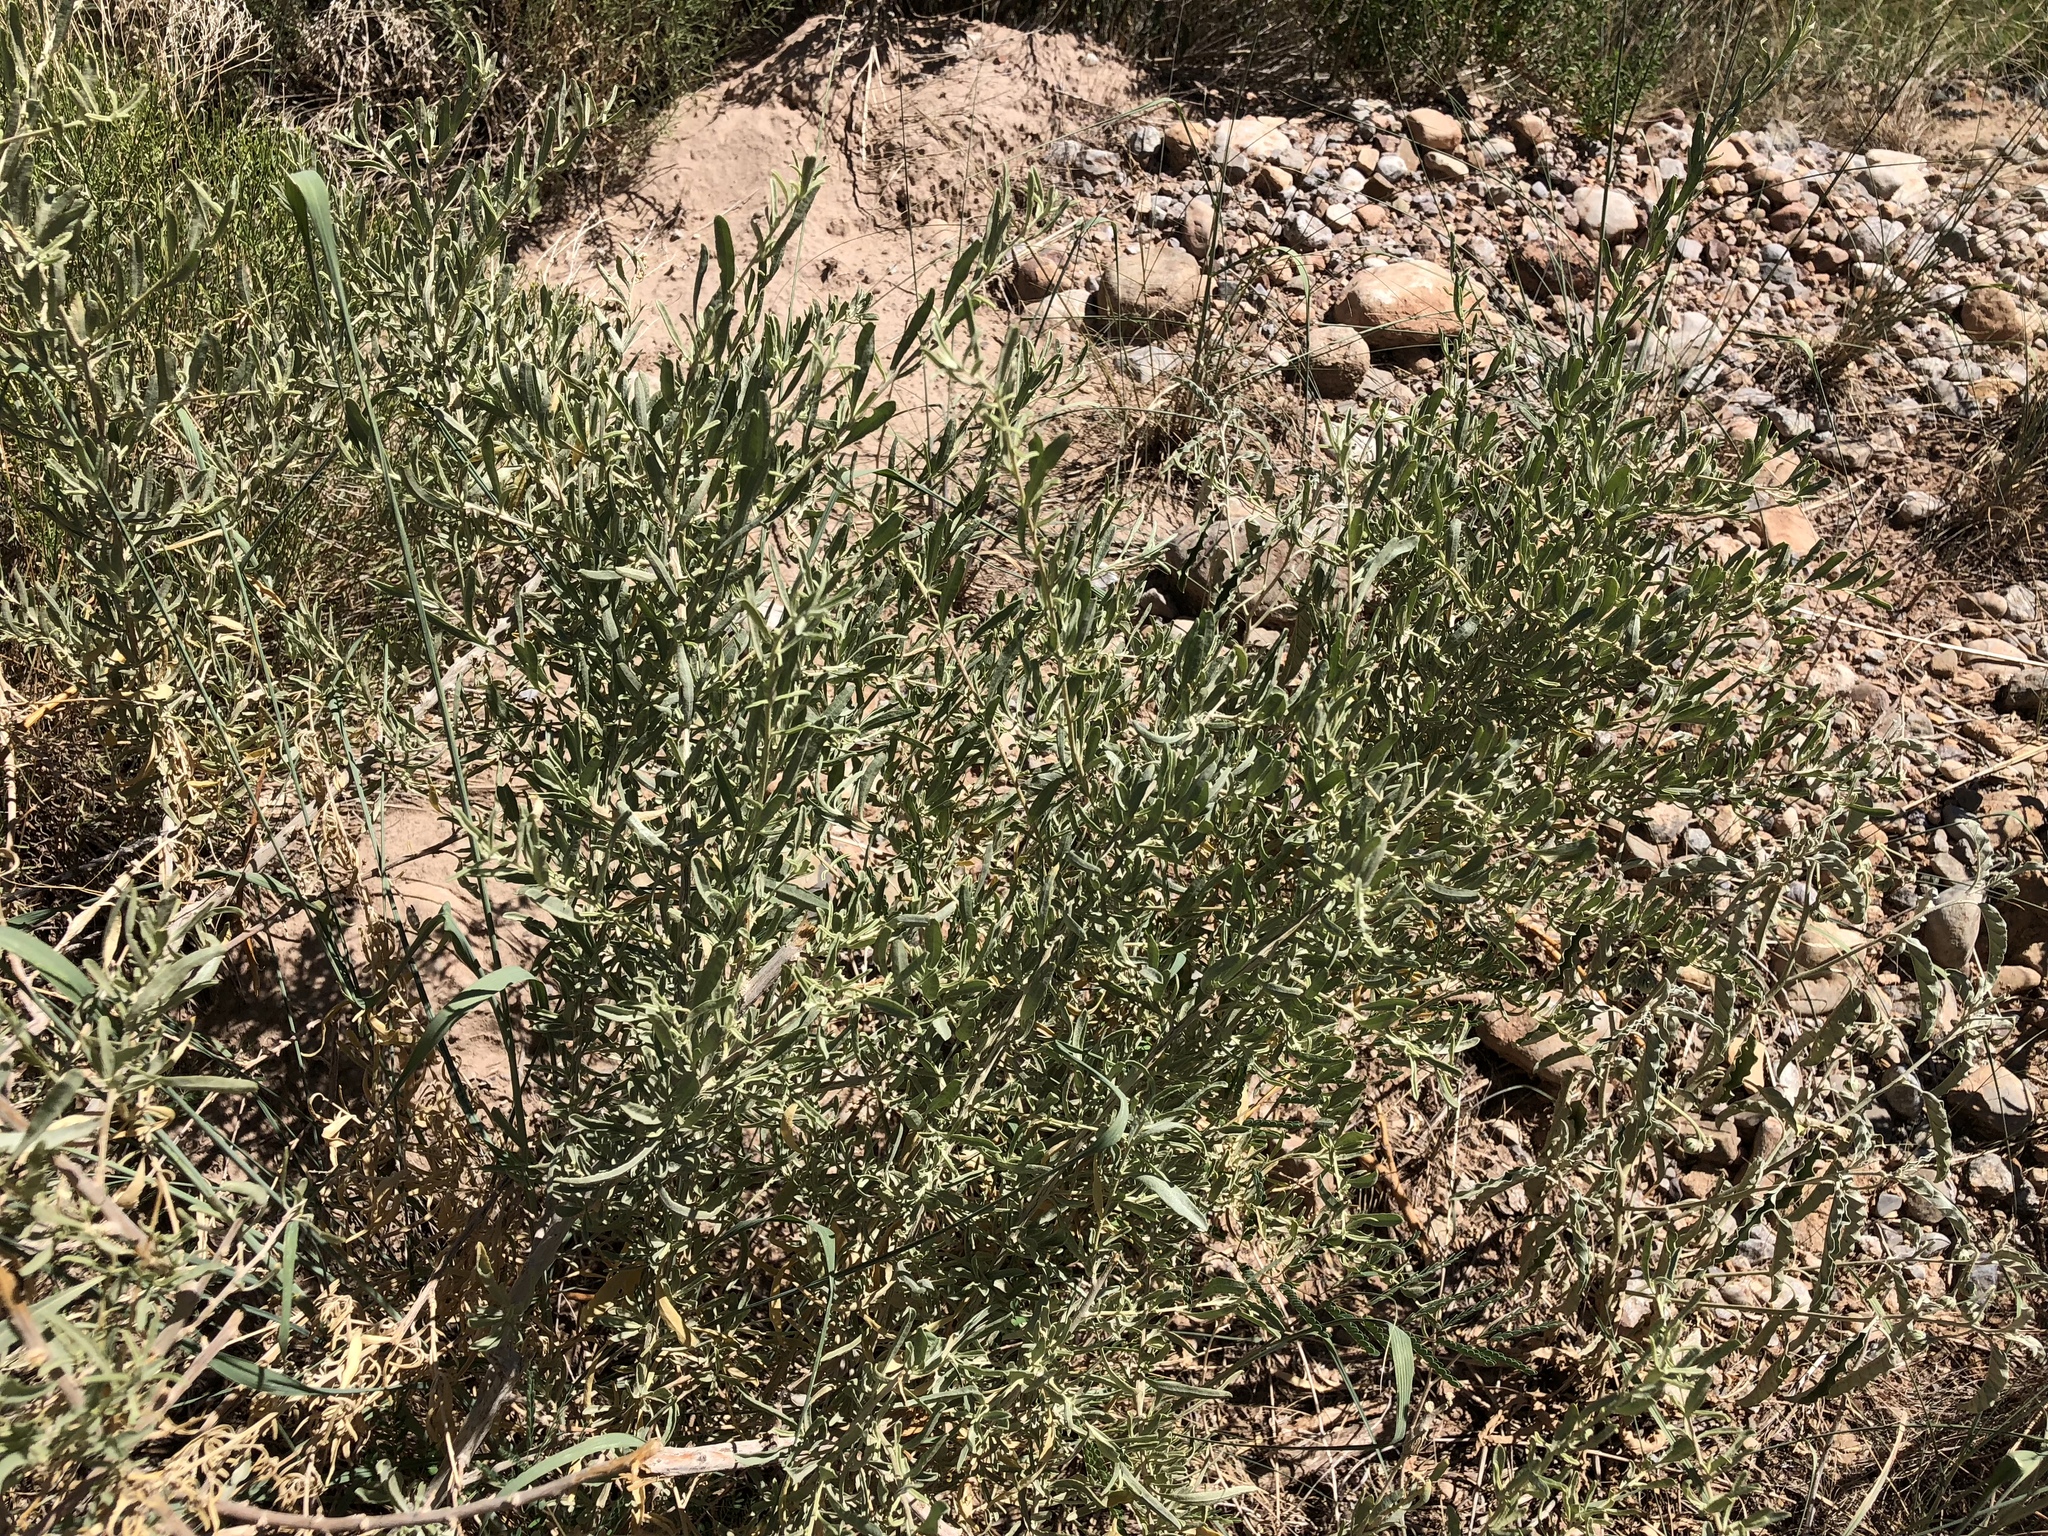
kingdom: Plantae
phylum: Tracheophyta
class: Magnoliopsida
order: Caryophyllales
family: Amaranthaceae
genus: Atriplex
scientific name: Atriplex canescens
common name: Four-wing saltbush
